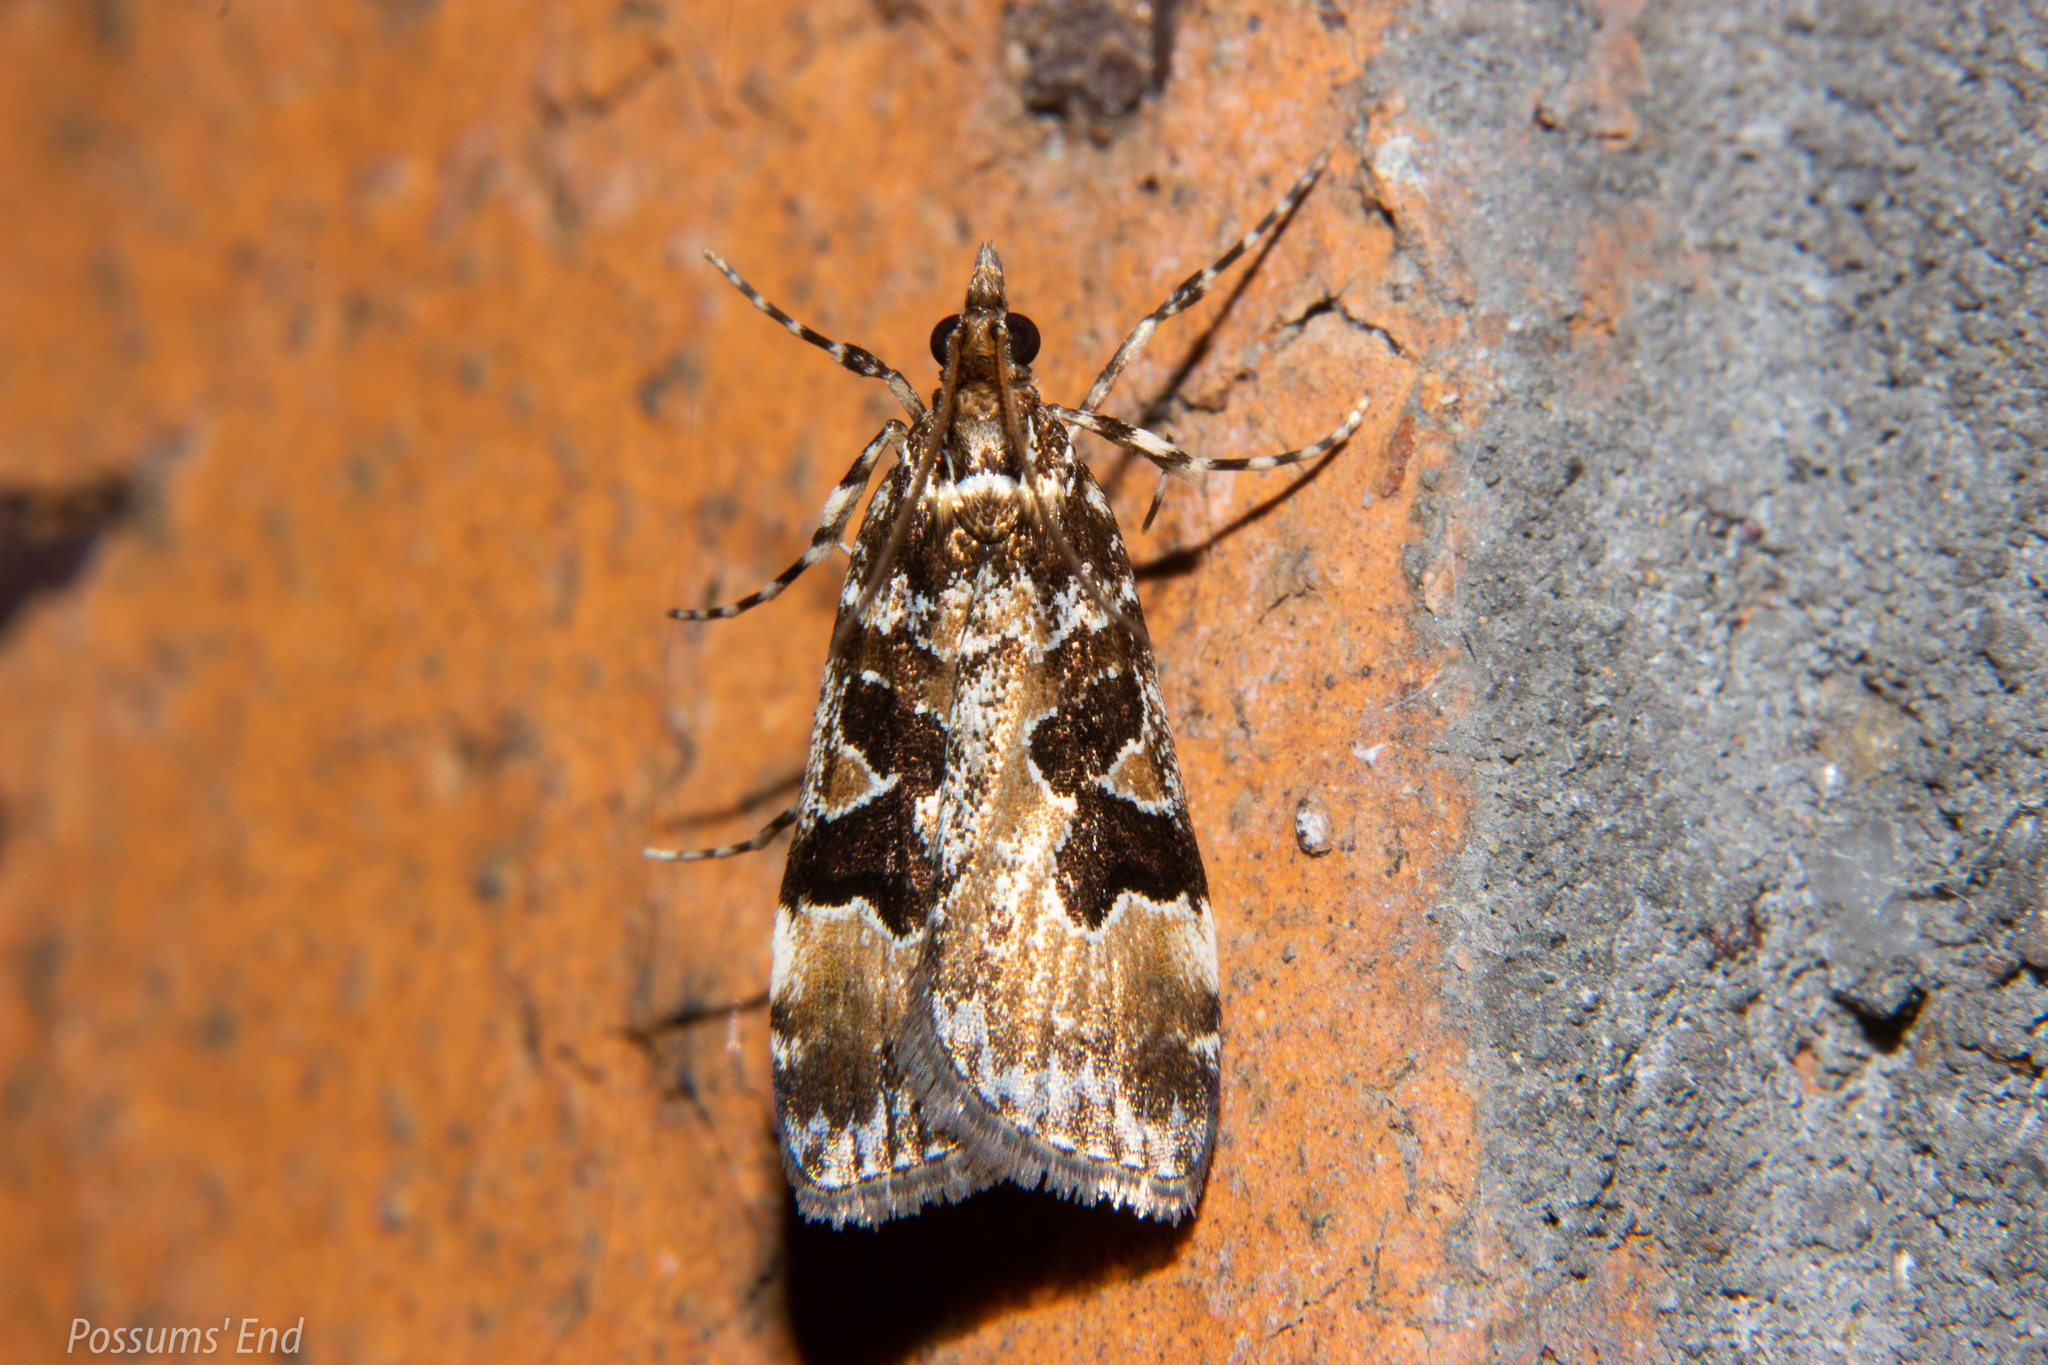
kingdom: Animalia
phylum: Arthropoda
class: Insecta
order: Lepidoptera
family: Crambidae
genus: Scoparia
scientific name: Scoparia ustimacula
